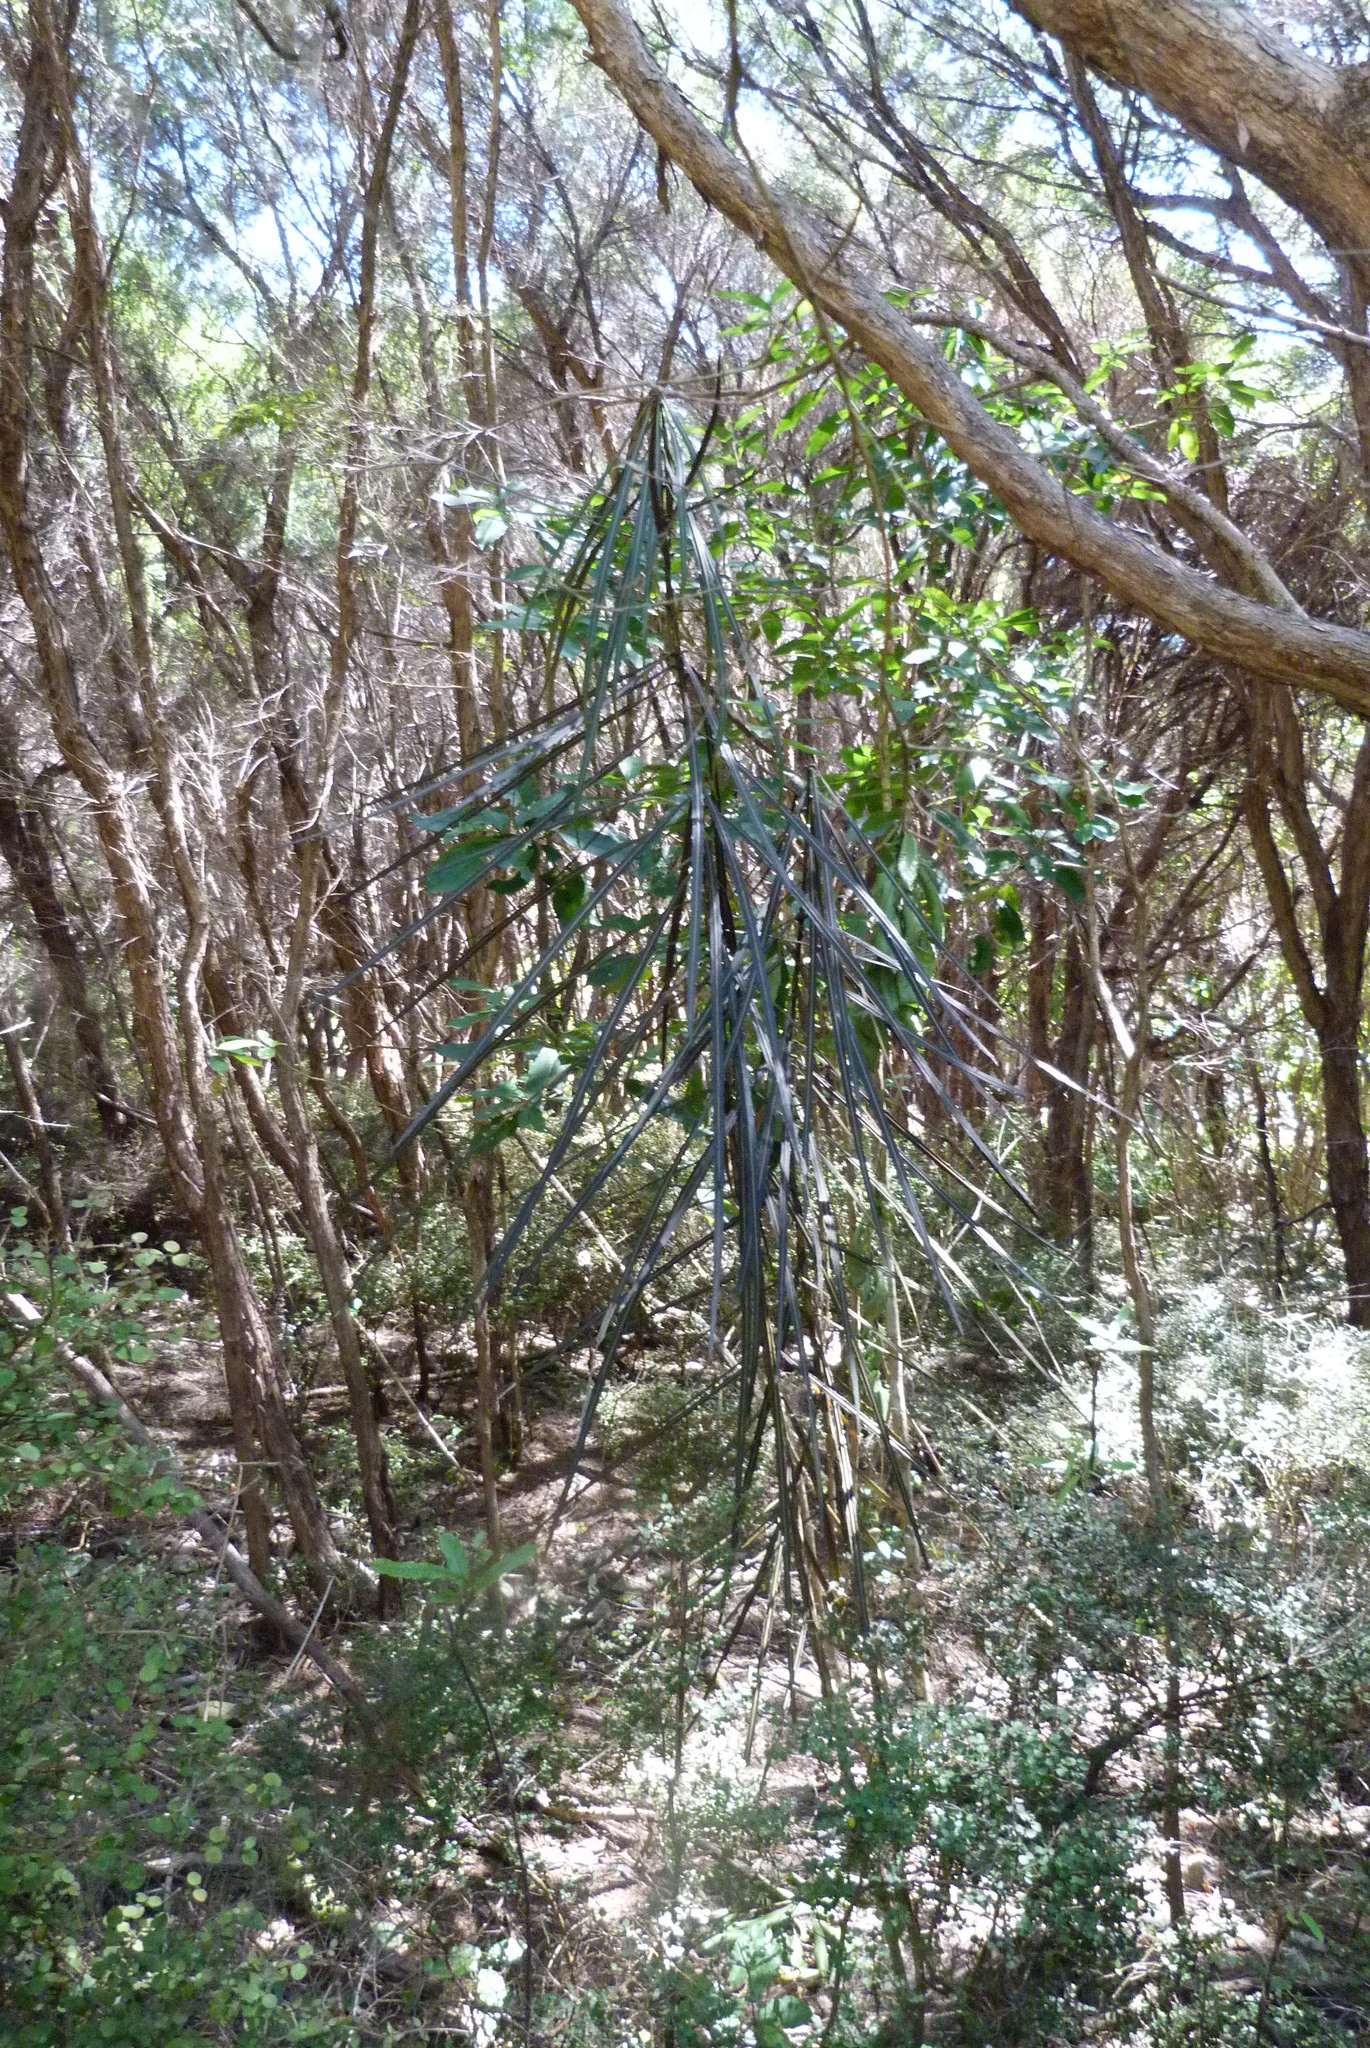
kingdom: Plantae
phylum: Tracheophyta
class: Magnoliopsida
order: Apiales
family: Araliaceae
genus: Pseudopanax
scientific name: Pseudopanax crassifolius
